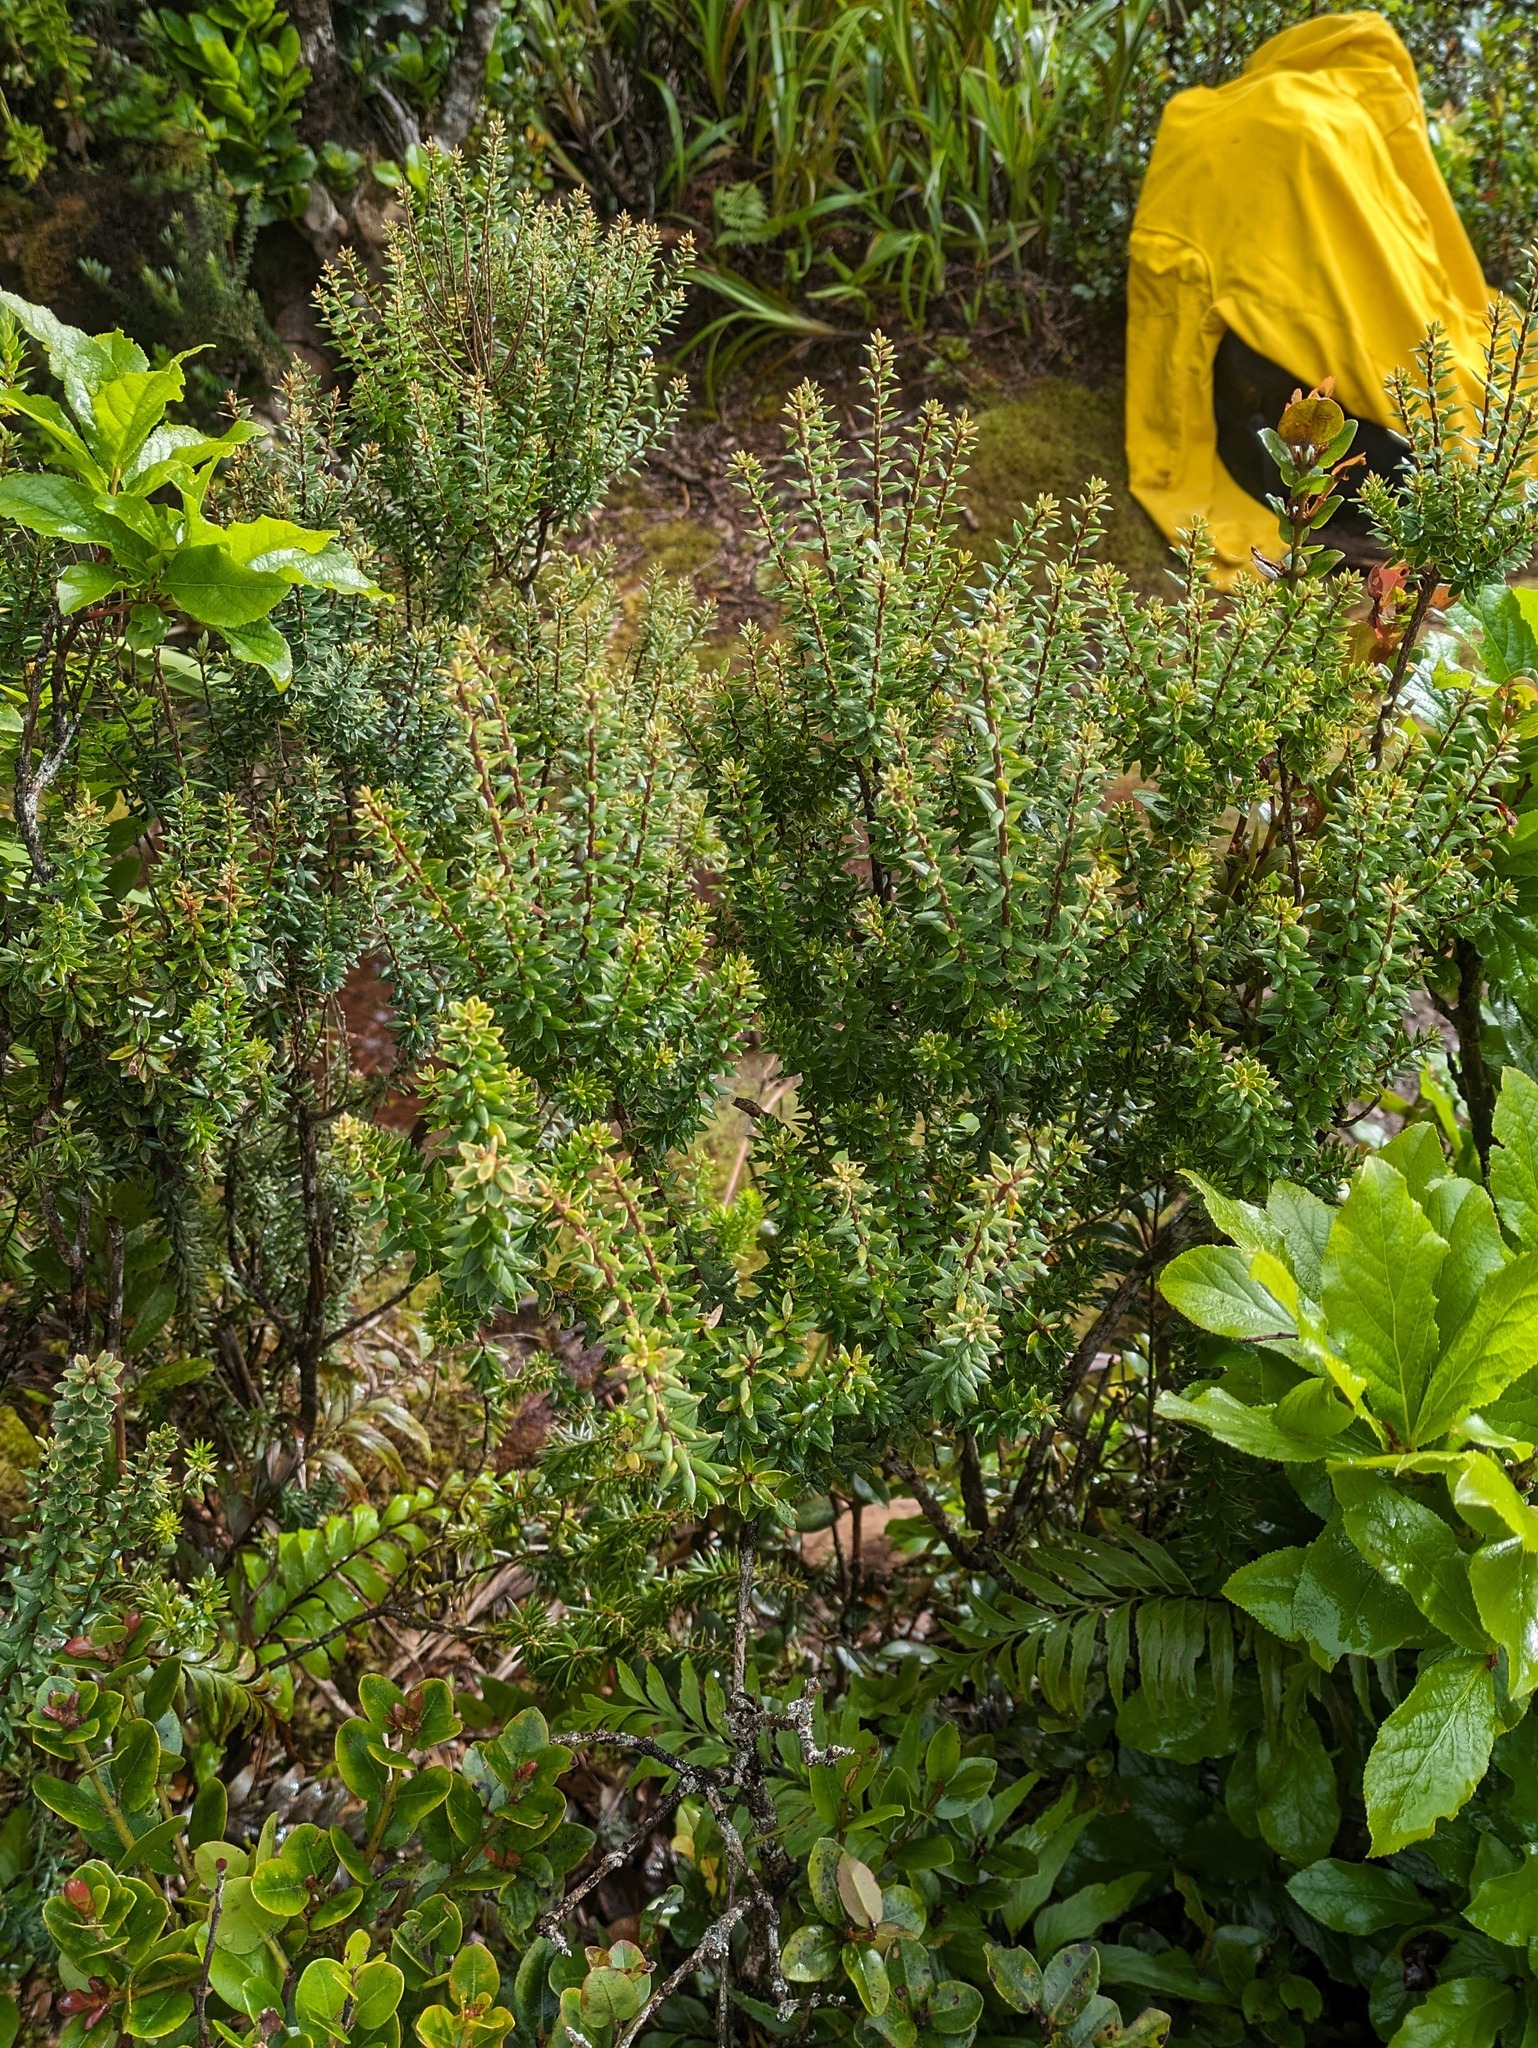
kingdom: Plantae
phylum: Tracheophyta
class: Magnoliopsida
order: Ericales
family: Ericaceae
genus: Leptecophylla
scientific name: Leptecophylla tameiameiae
